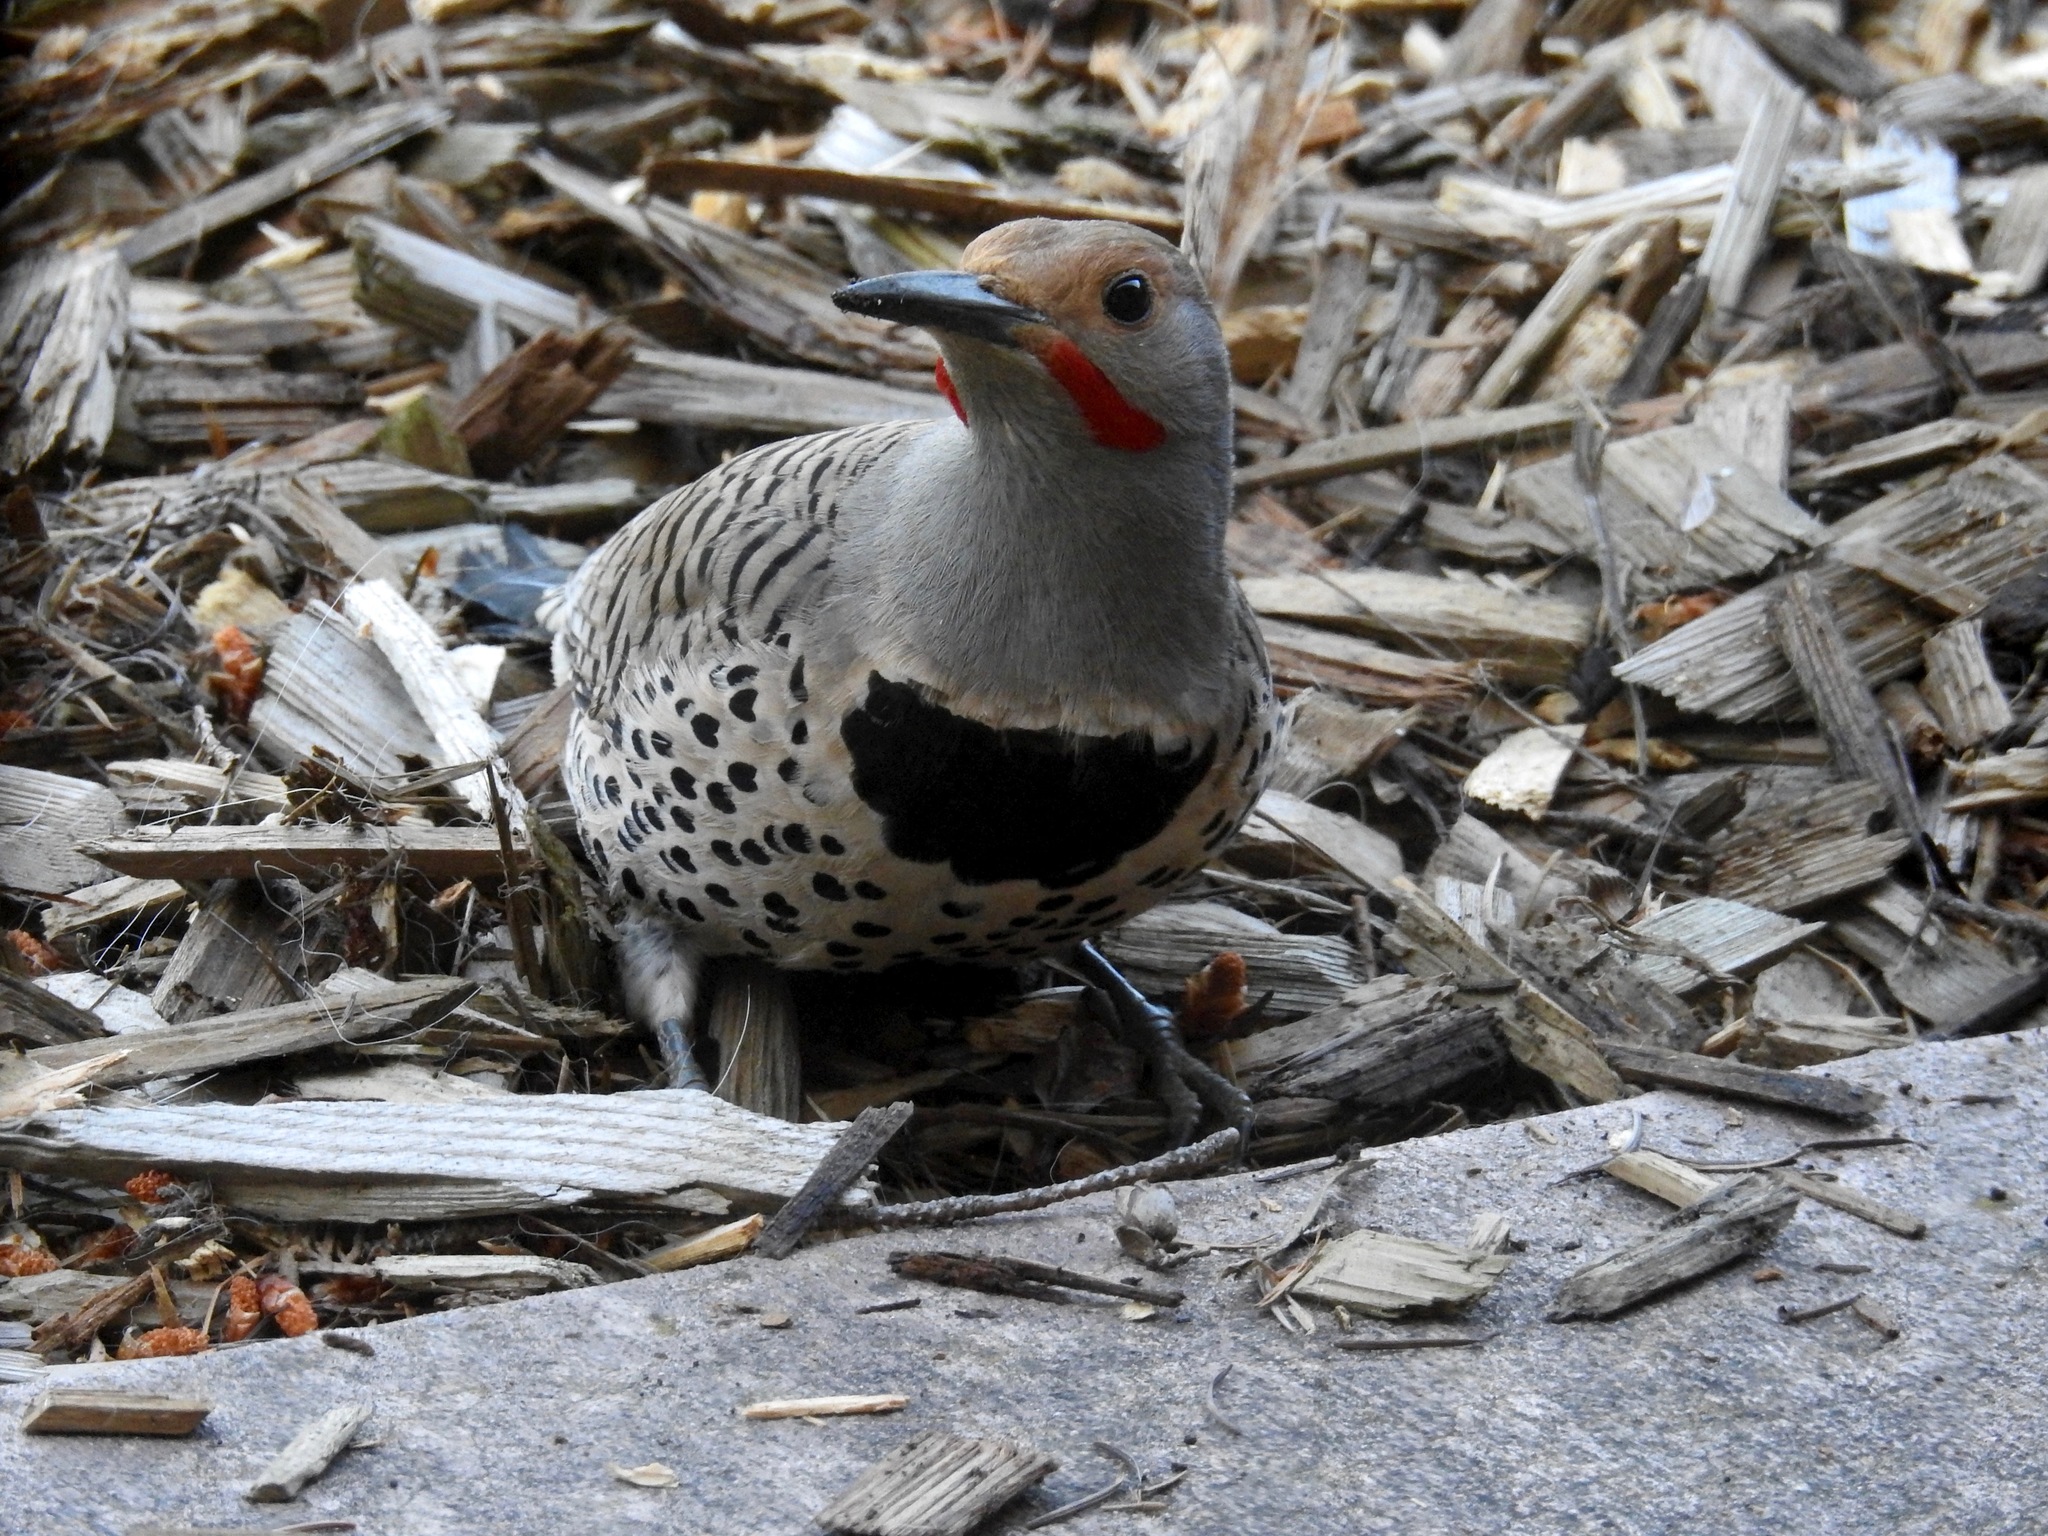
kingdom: Animalia
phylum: Chordata
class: Aves
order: Piciformes
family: Picidae
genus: Colaptes
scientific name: Colaptes auratus
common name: Northern flicker
